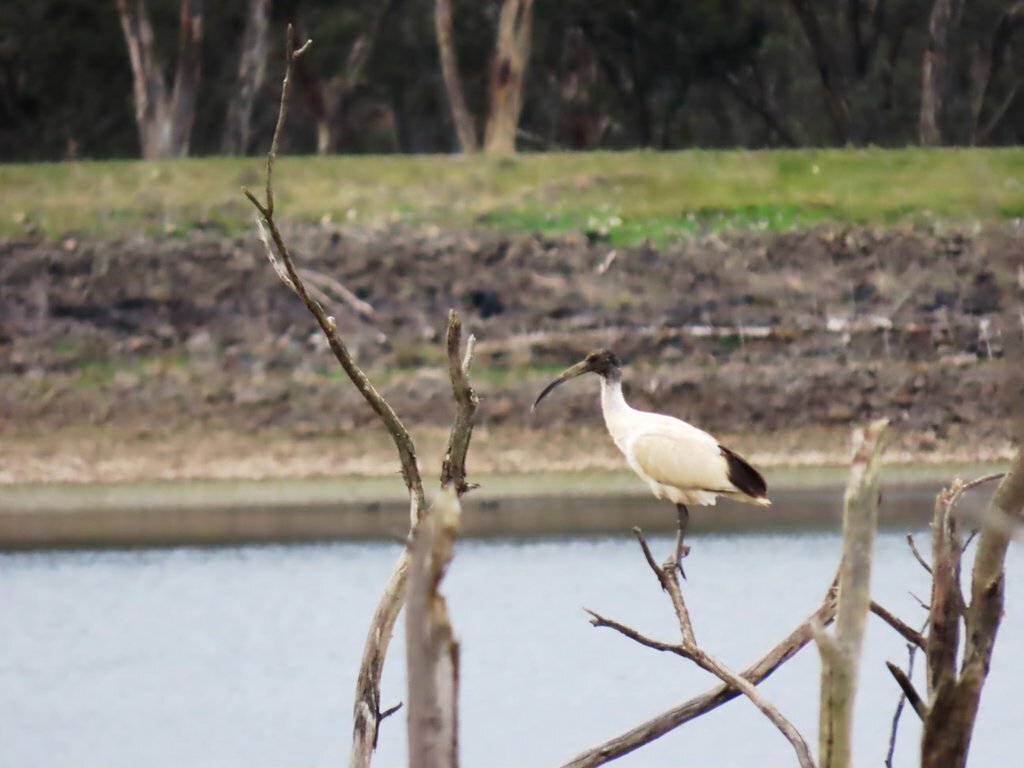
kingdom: Animalia
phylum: Chordata
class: Aves
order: Pelecaniformes
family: Threskiornithidae
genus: Threskiornis
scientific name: Threskiornis molucca
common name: Australian white ibis
